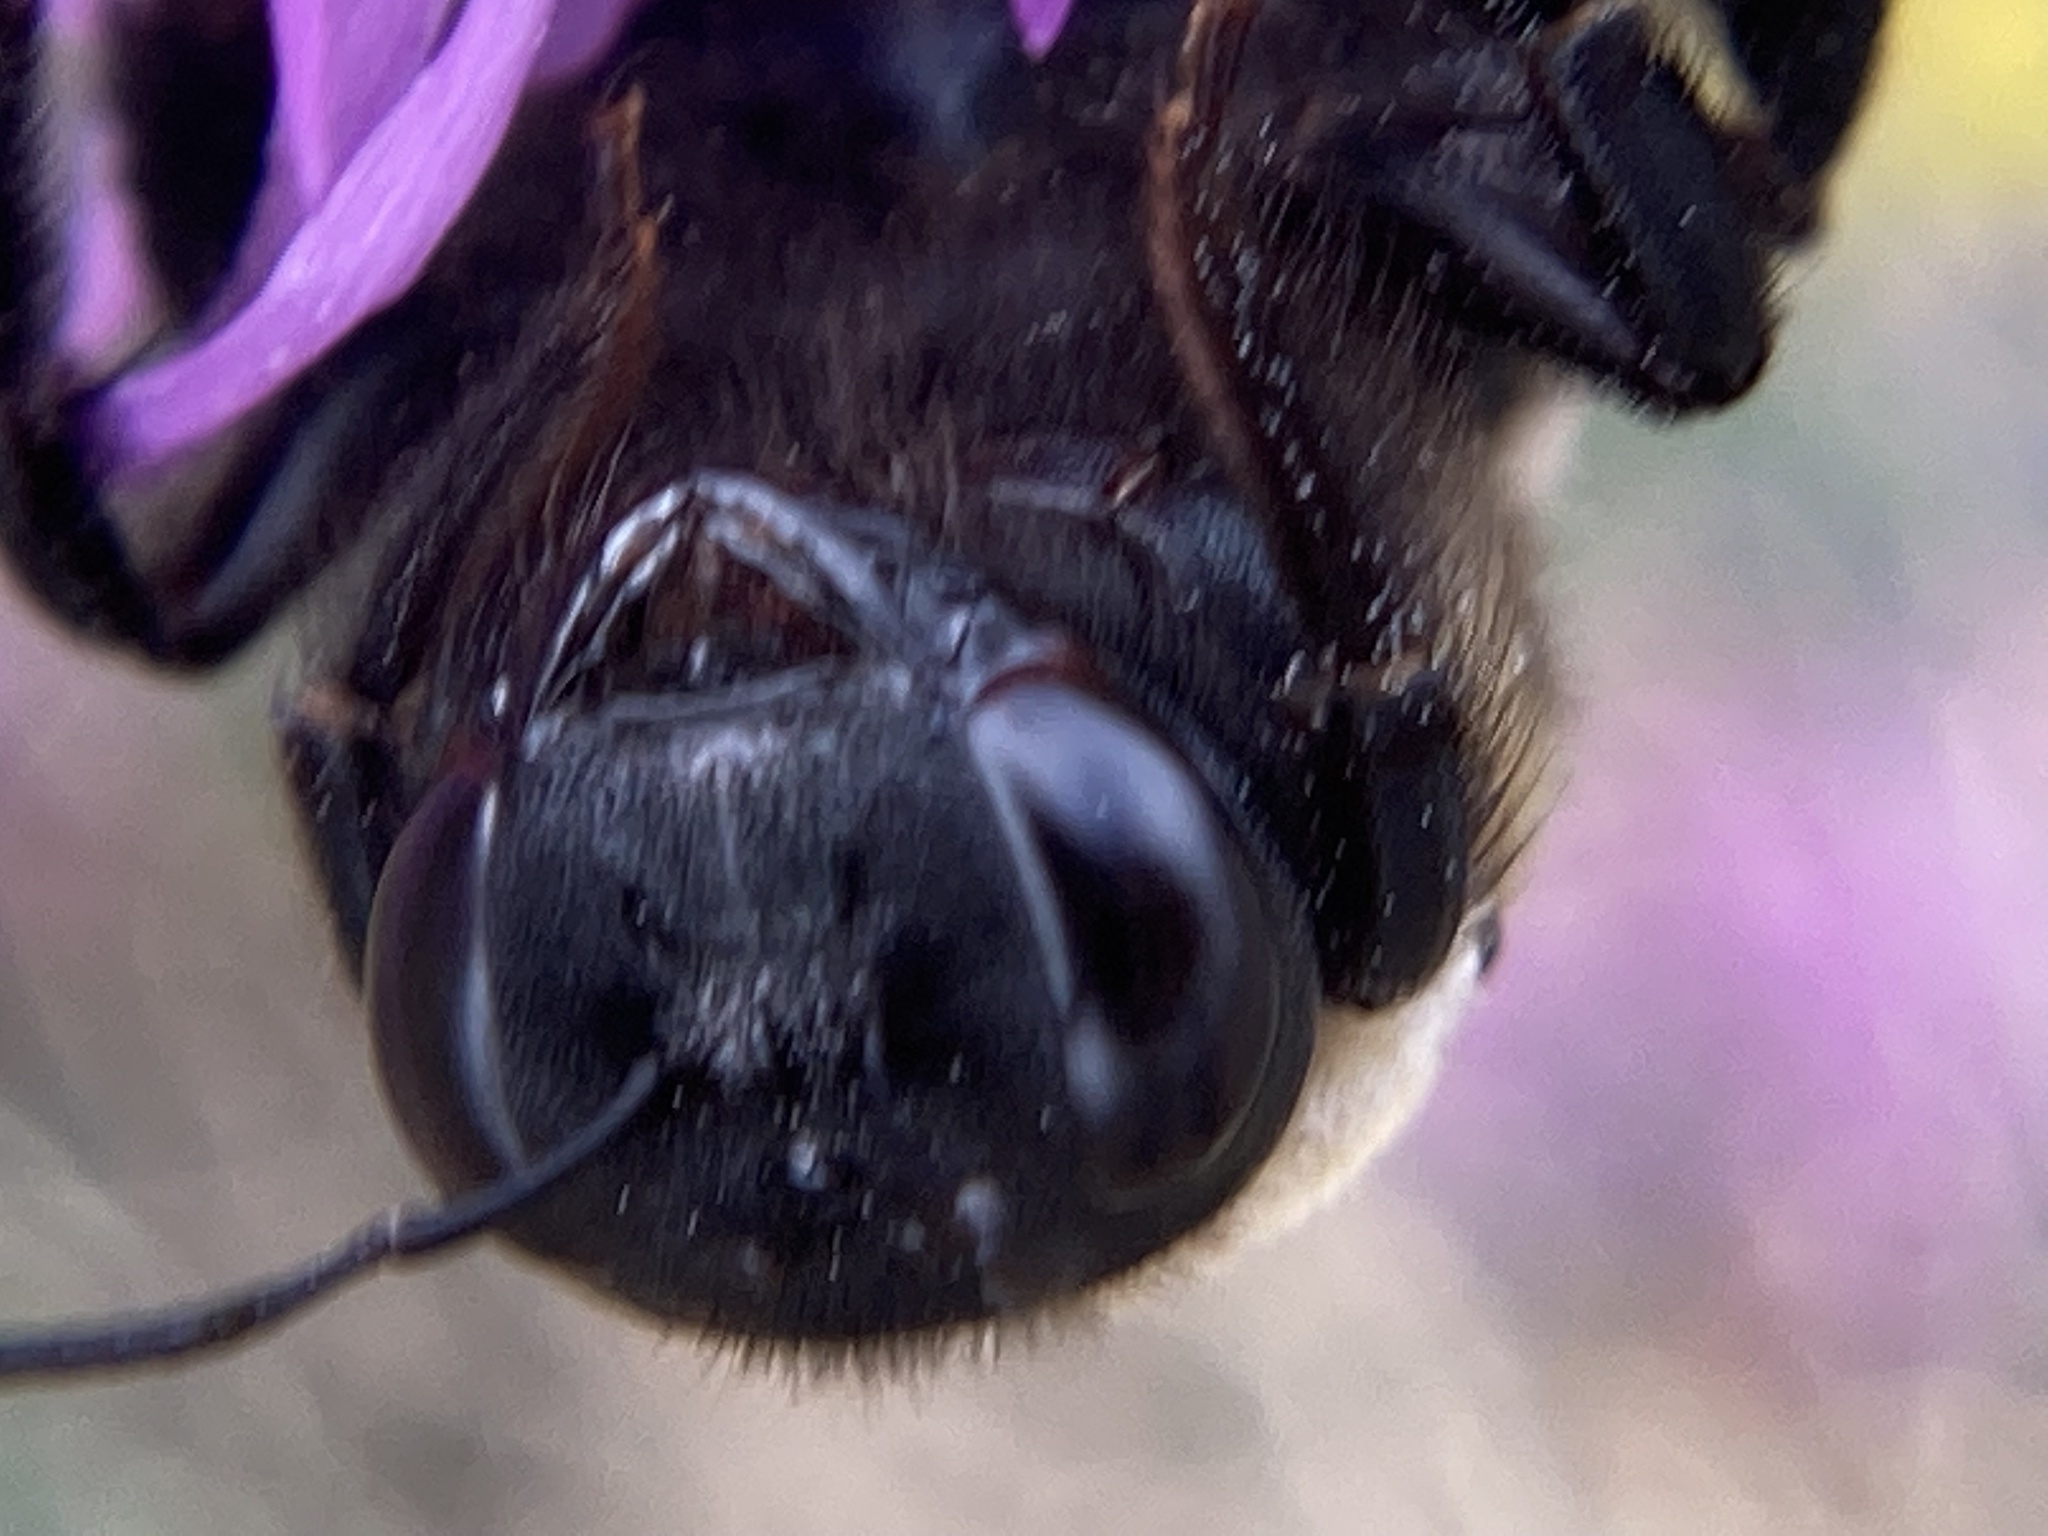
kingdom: Animalia
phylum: Arthropoda
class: Insecta
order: Hymenoptera
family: Apidae
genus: Xylocopa
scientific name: Xylocopa virginica
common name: Carpenter bee
